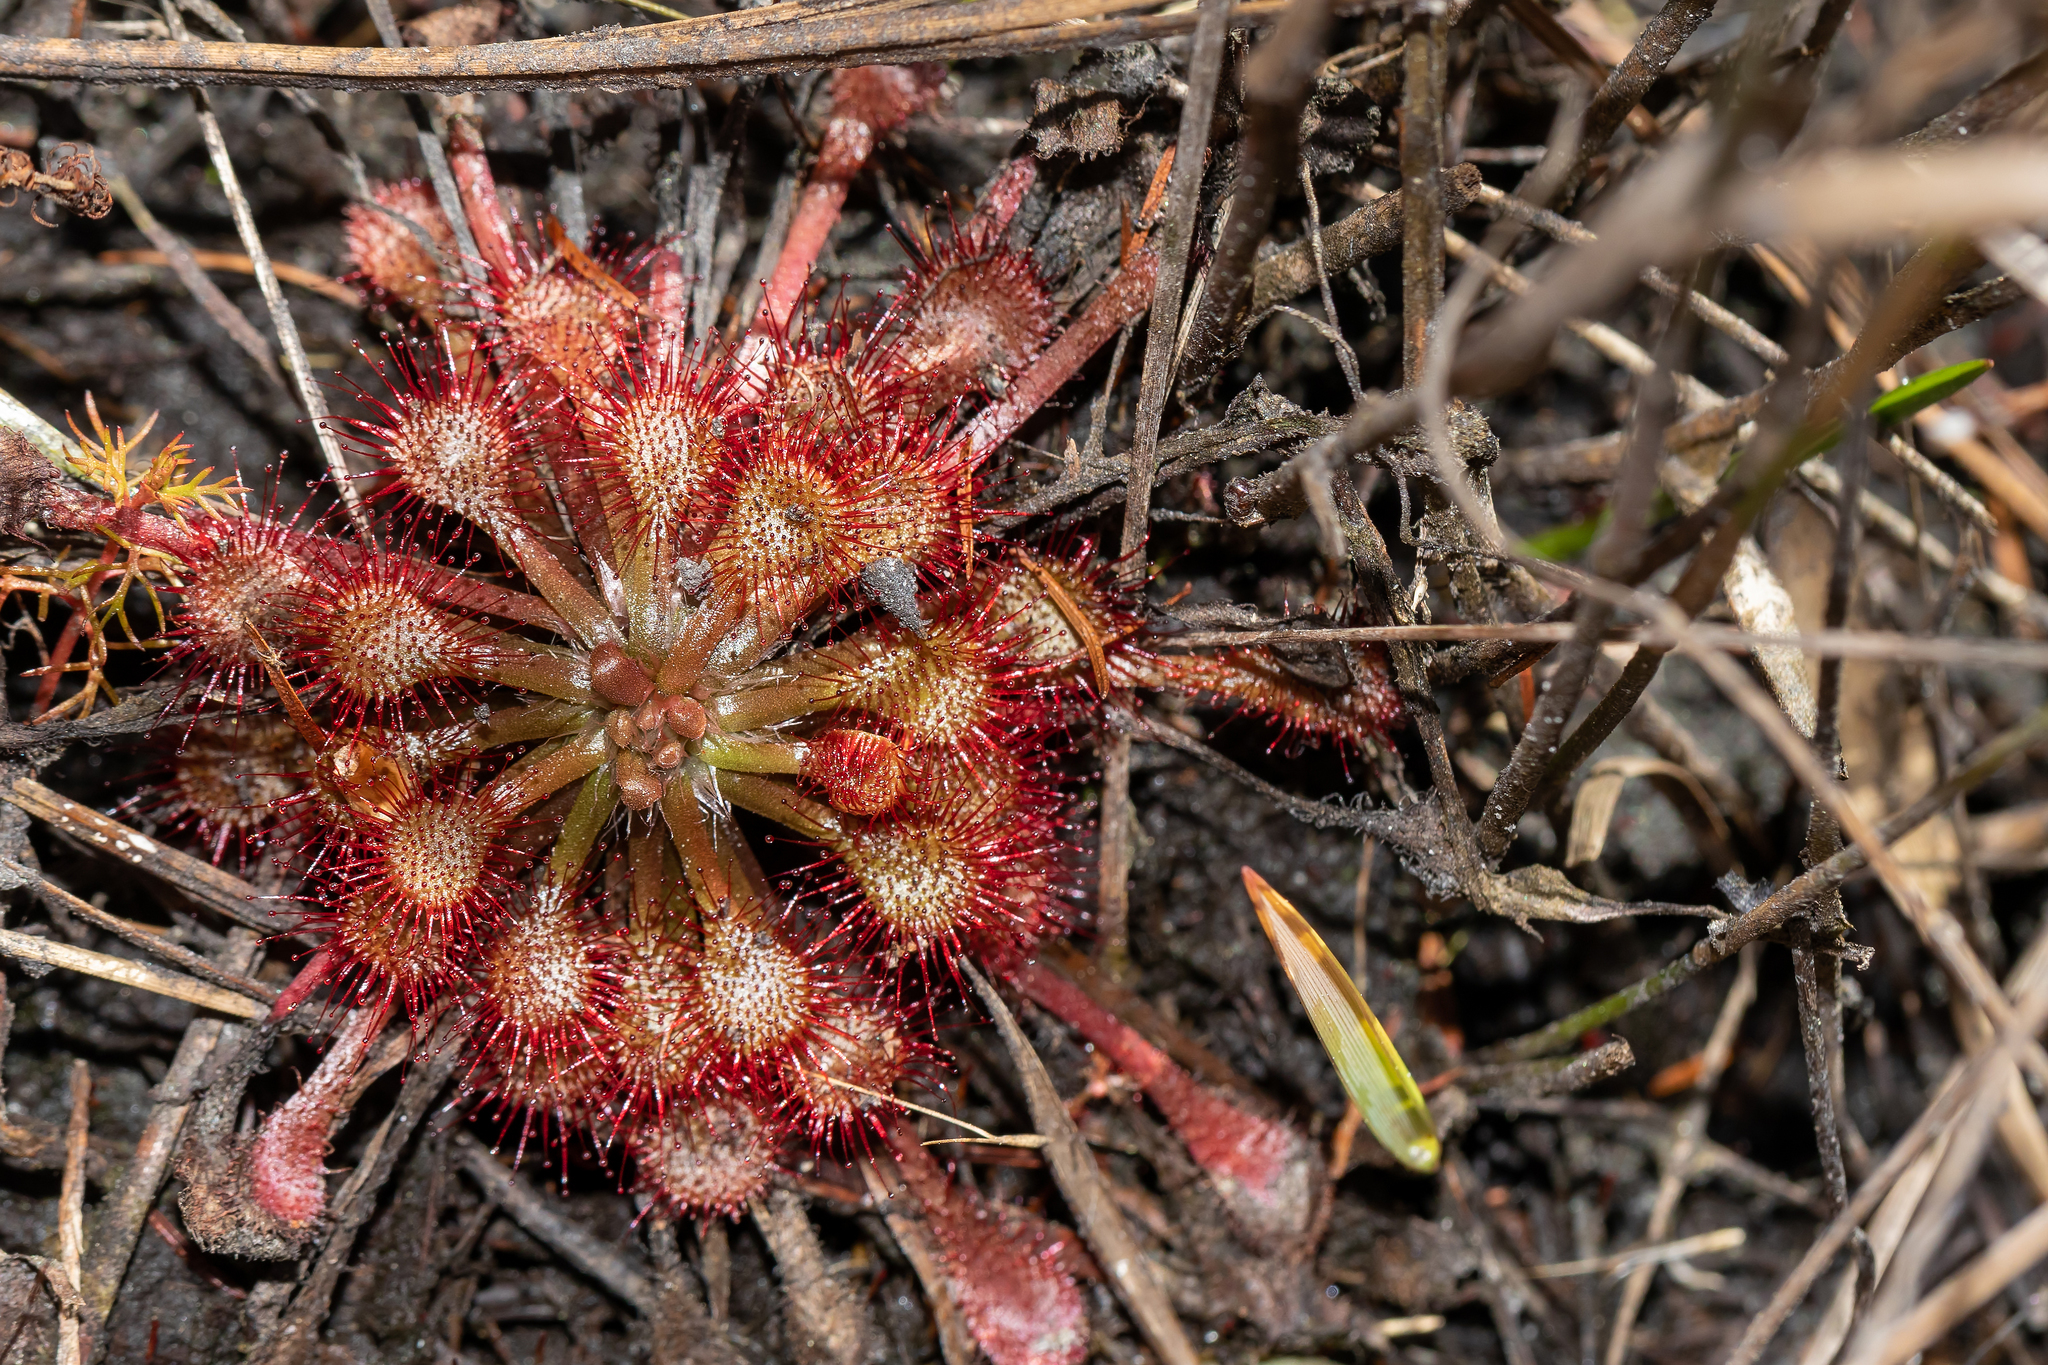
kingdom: Plantae
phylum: Tracheophyta
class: Magnoliopsida
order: Caryophyllales
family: Droseraceae
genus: Drosera
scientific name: Drosera capillaris
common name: Pink sundew
